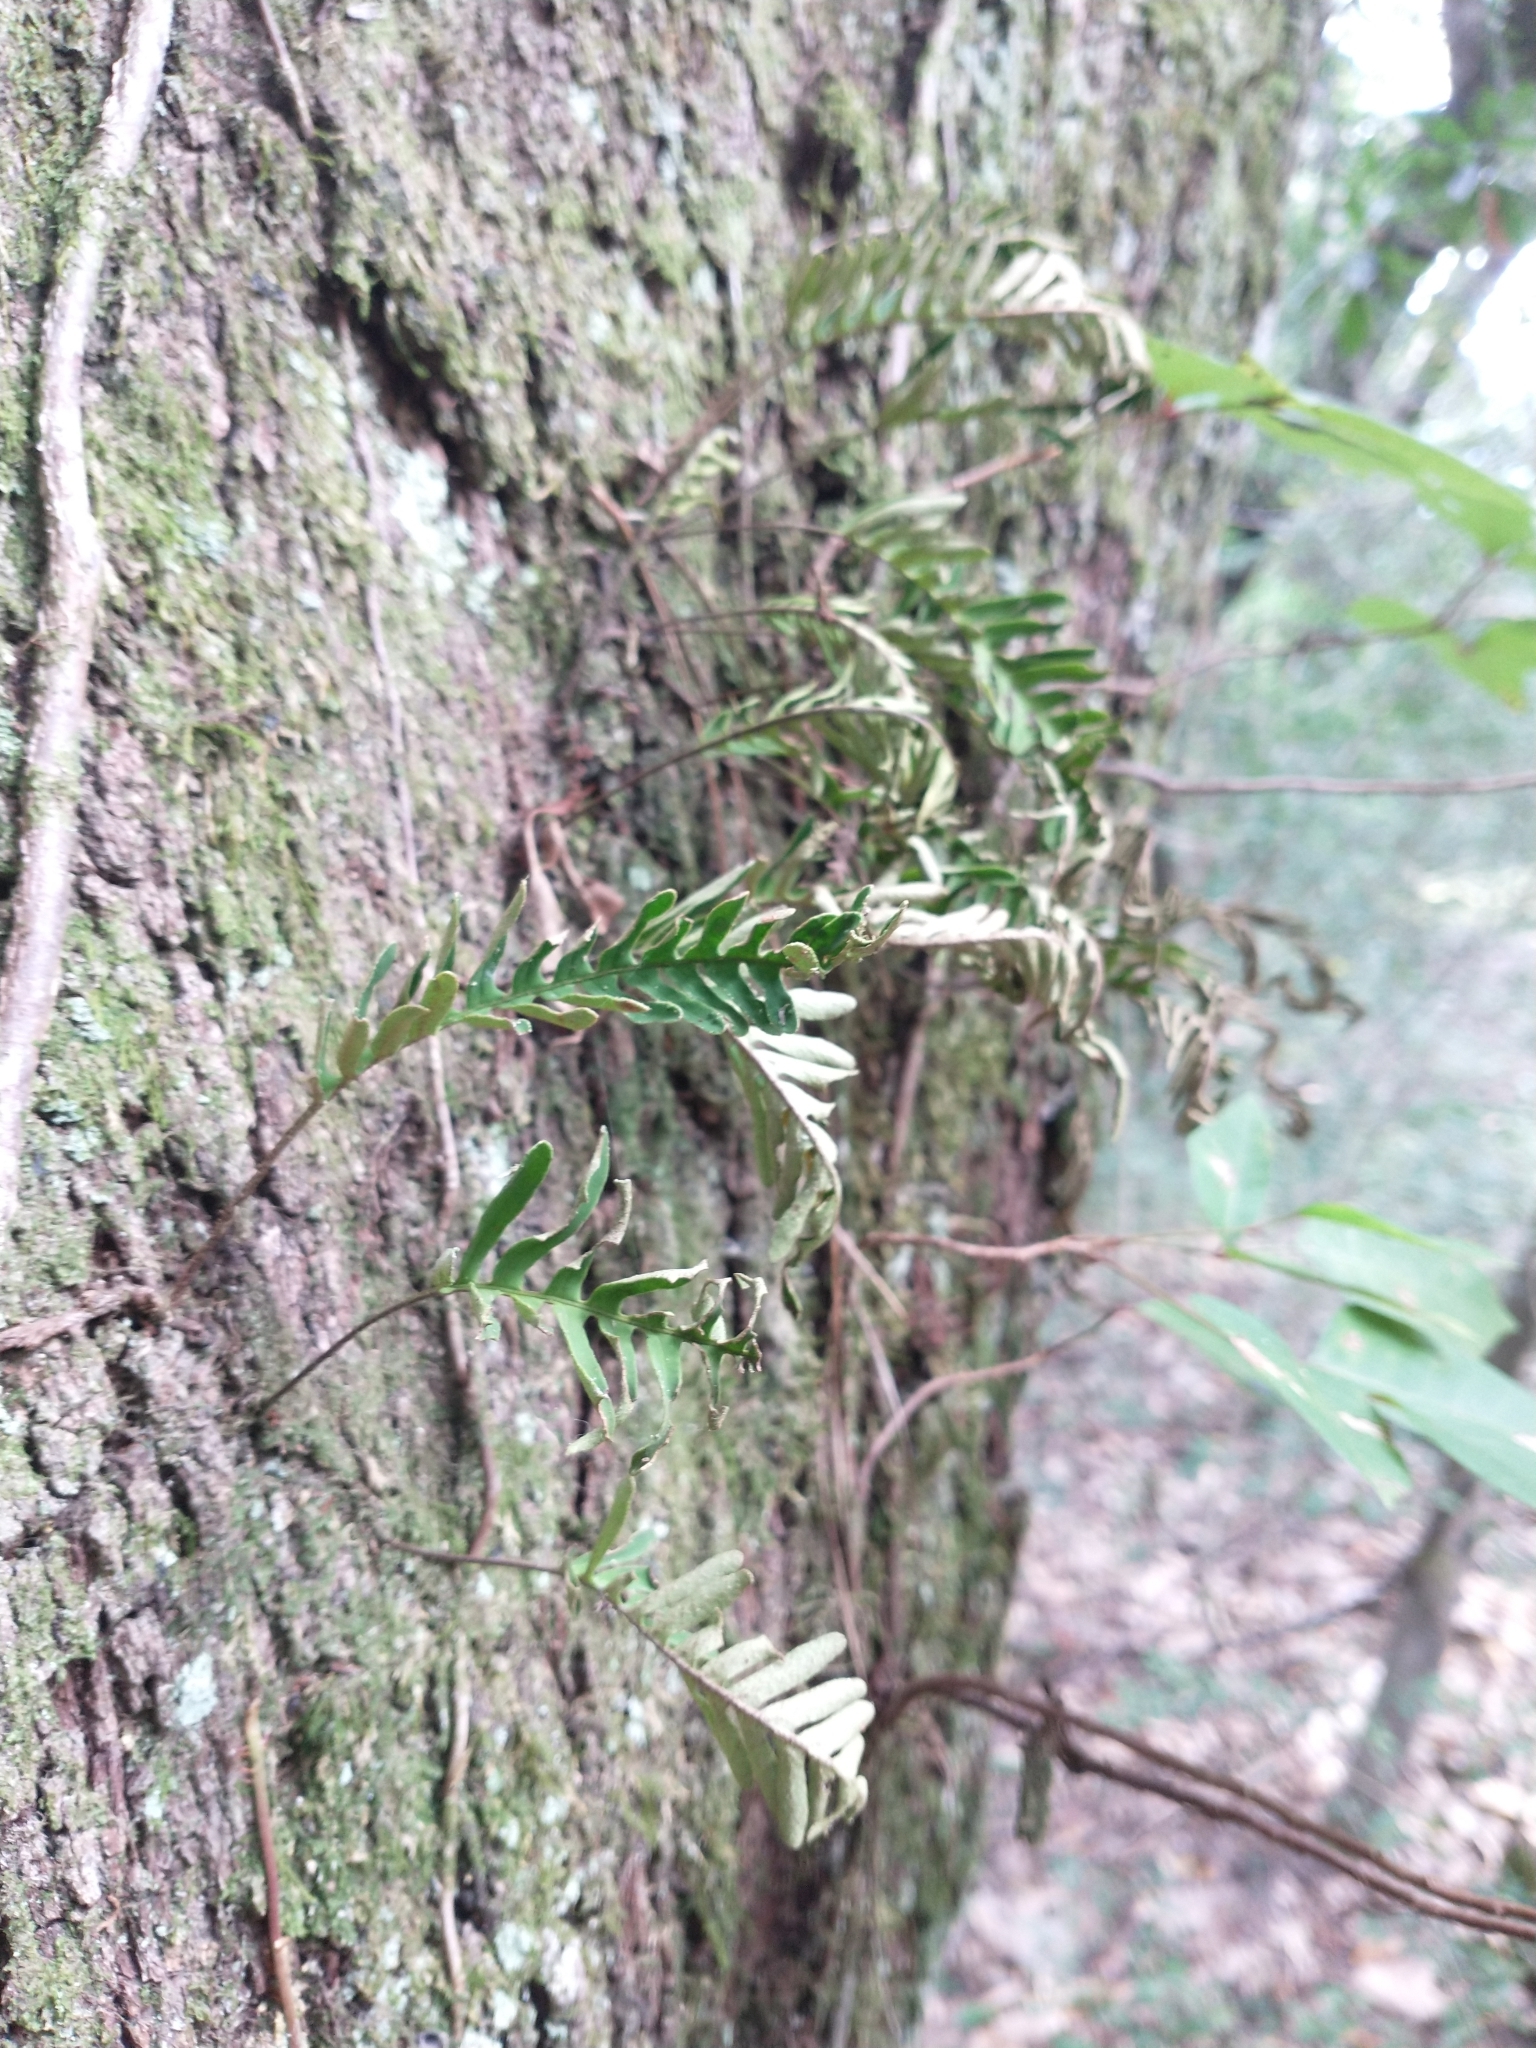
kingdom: Plantae
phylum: Tracheophyta
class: Polypodiopsida
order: Polypodiales
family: Polypodiaceae
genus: Pleopeltis
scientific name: Pleopeltis michauxiana
